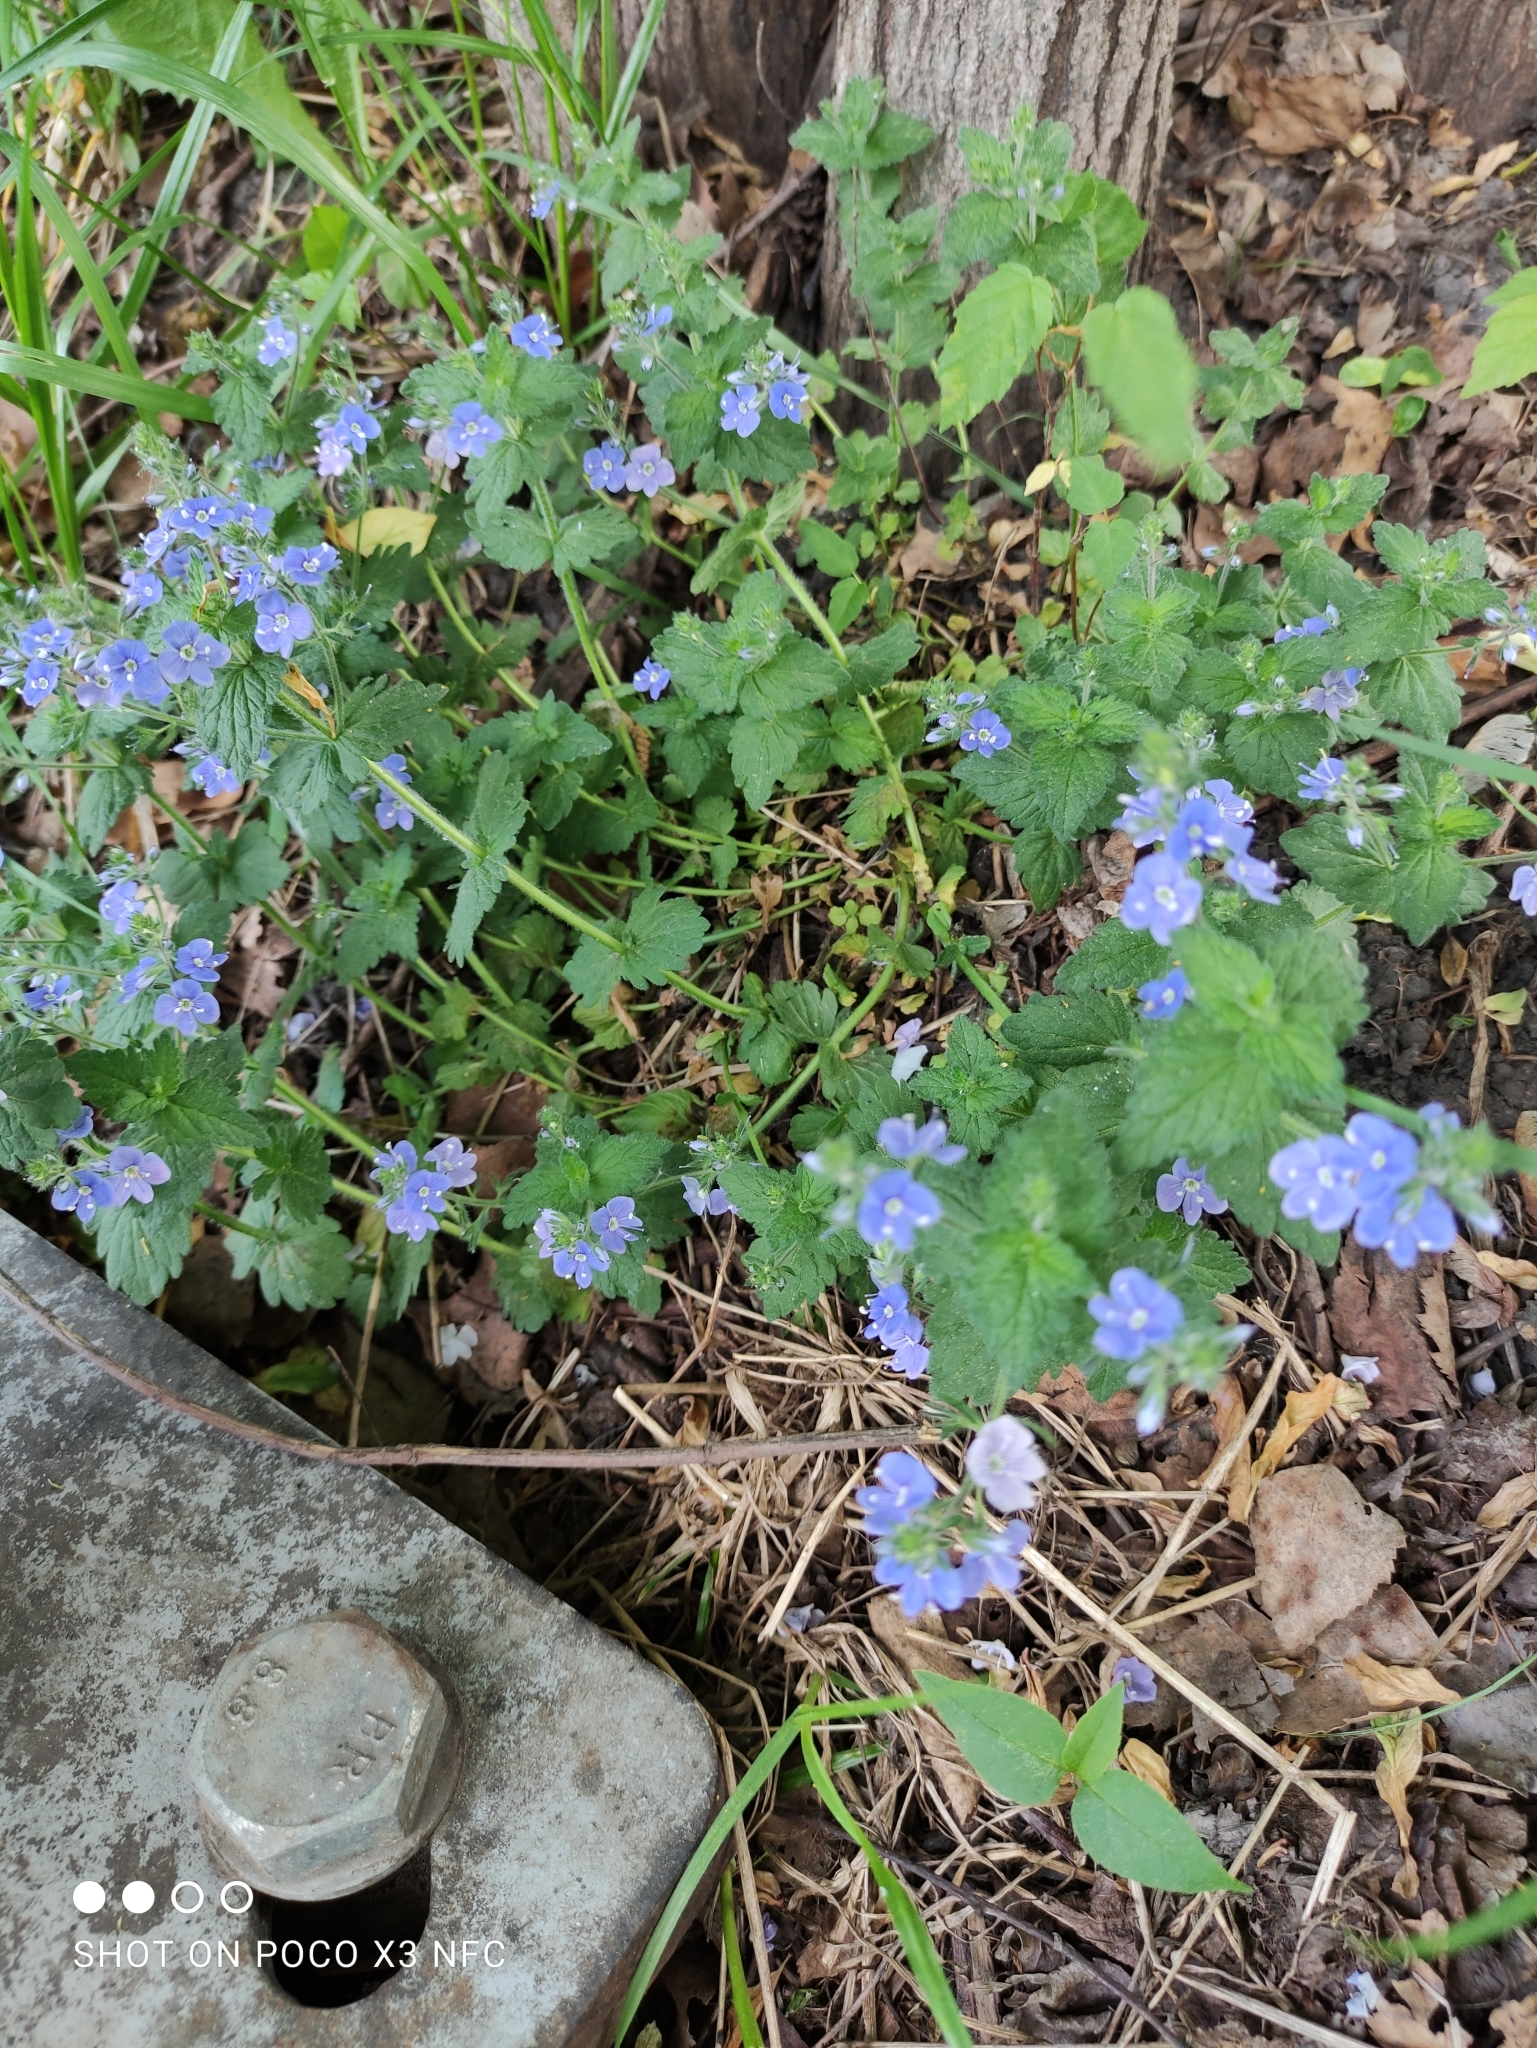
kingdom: Plantae
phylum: Tracheophyta
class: Magnoliopsida
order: Lamiales
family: Plantaginaceae
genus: Veronica
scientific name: Veronica chamaedrys
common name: Germander speedwell
